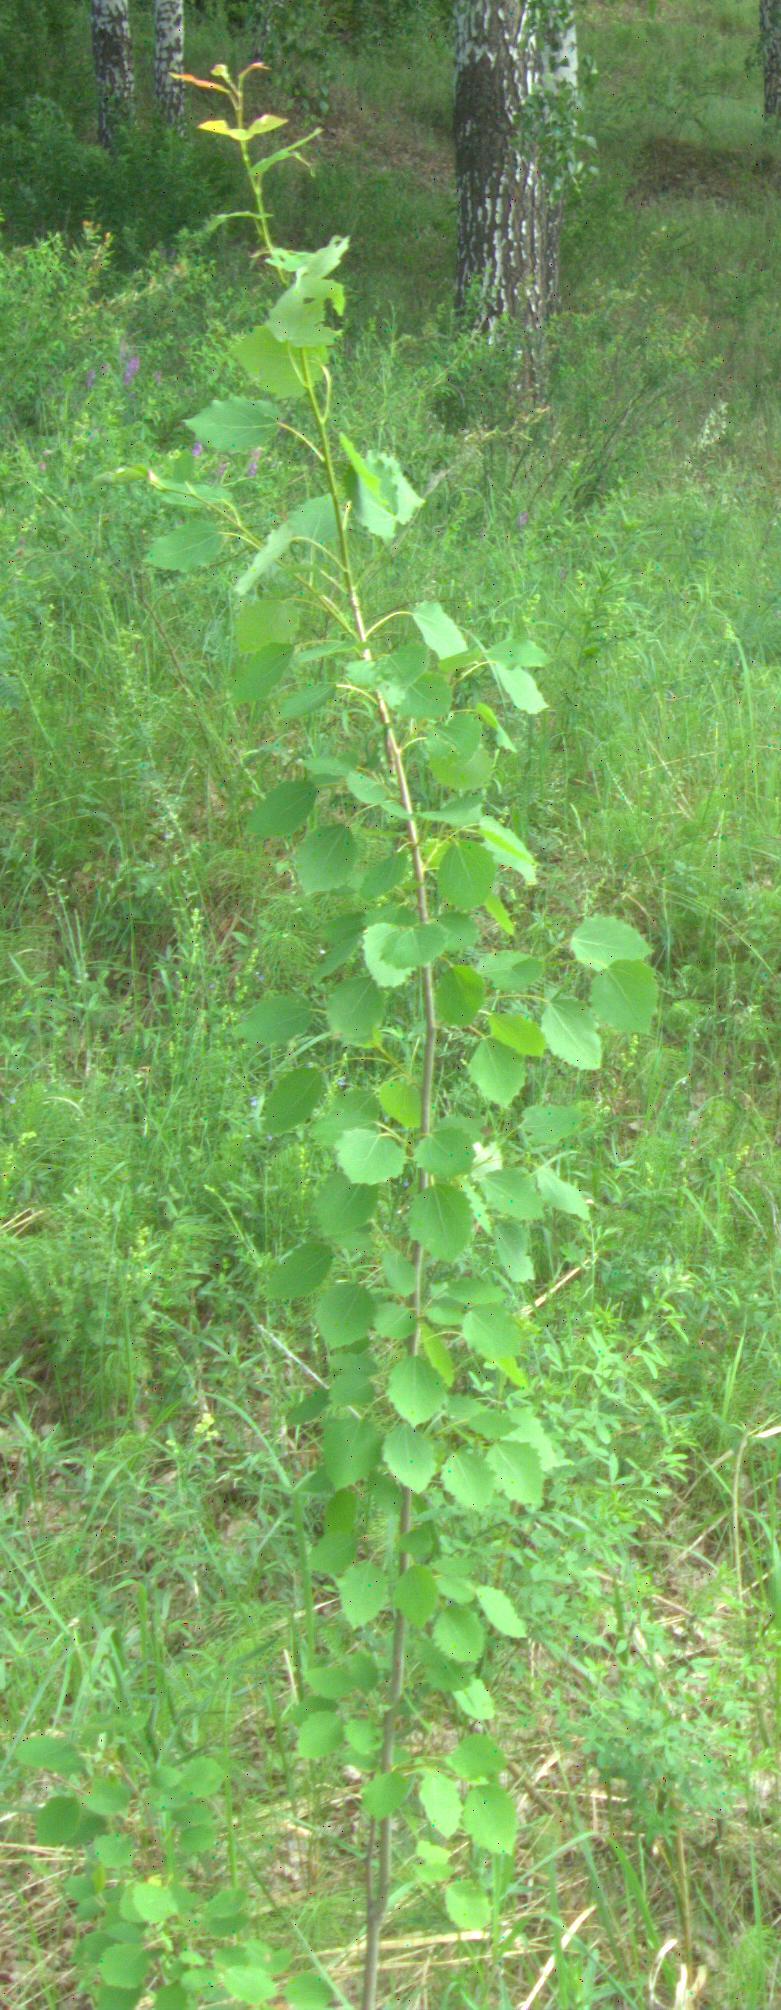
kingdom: Plantae
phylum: Tracheophyta
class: Magnoliopsida
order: Malpighiales
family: Salicaceae
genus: Populus
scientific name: Populus tremula
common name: European aspen
